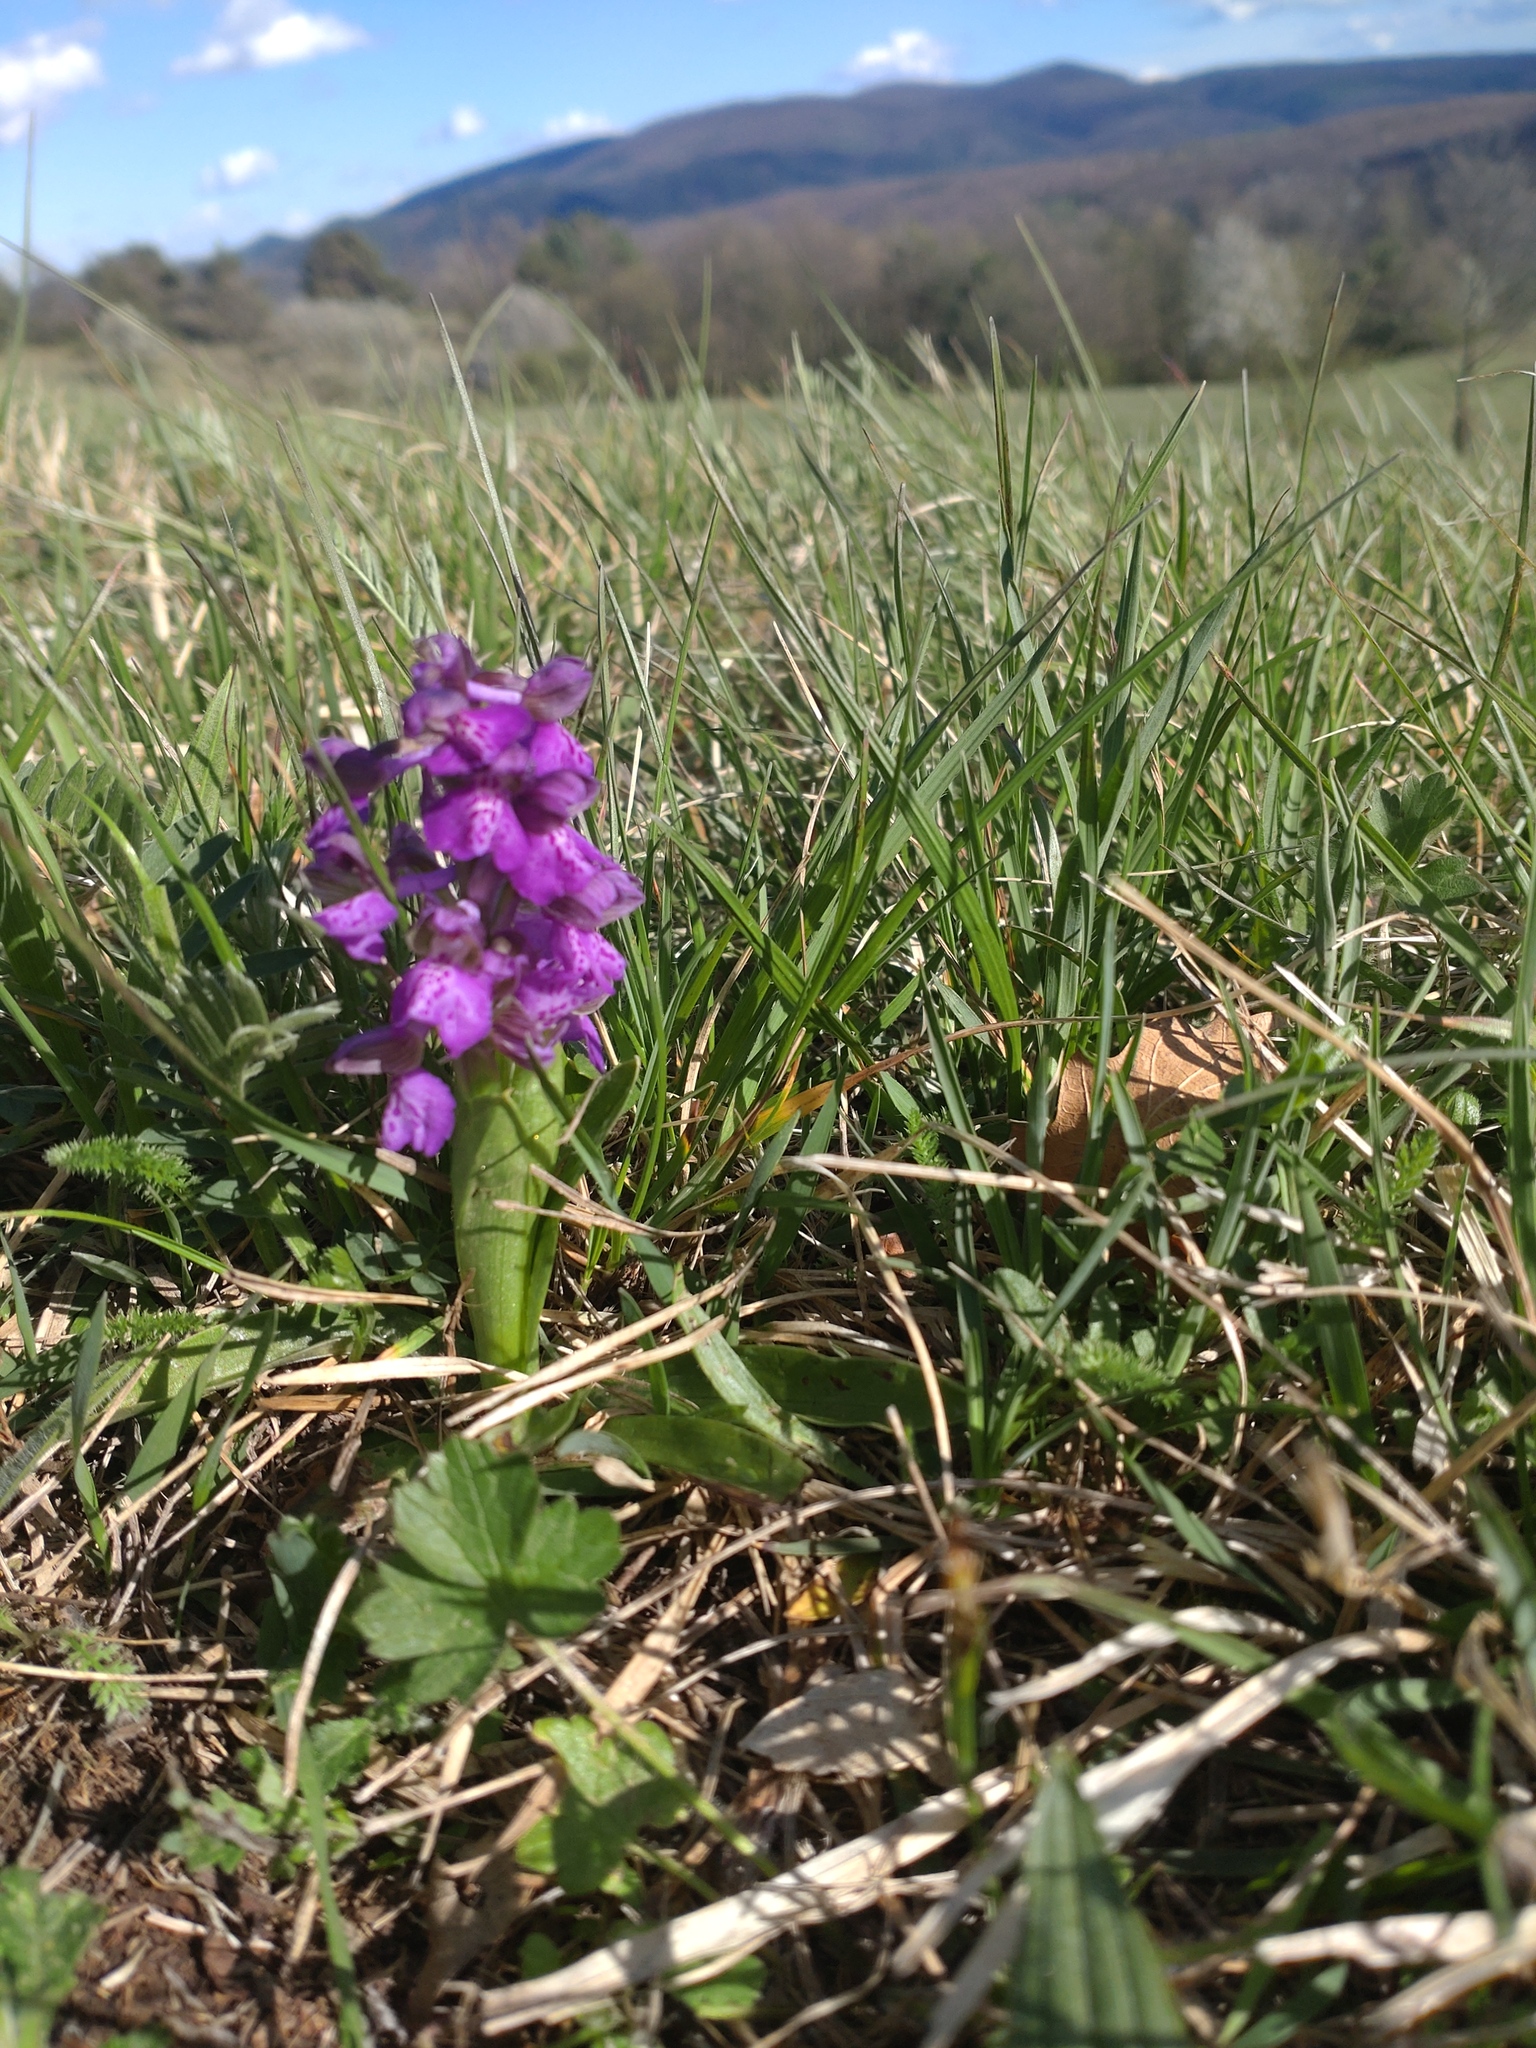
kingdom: Plantae
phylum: Tracheophyta
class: Liliopsida
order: Asparagales
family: Orchidaceae
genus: Anacamptis
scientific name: Anacamptis morio
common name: Green-winged orchid
